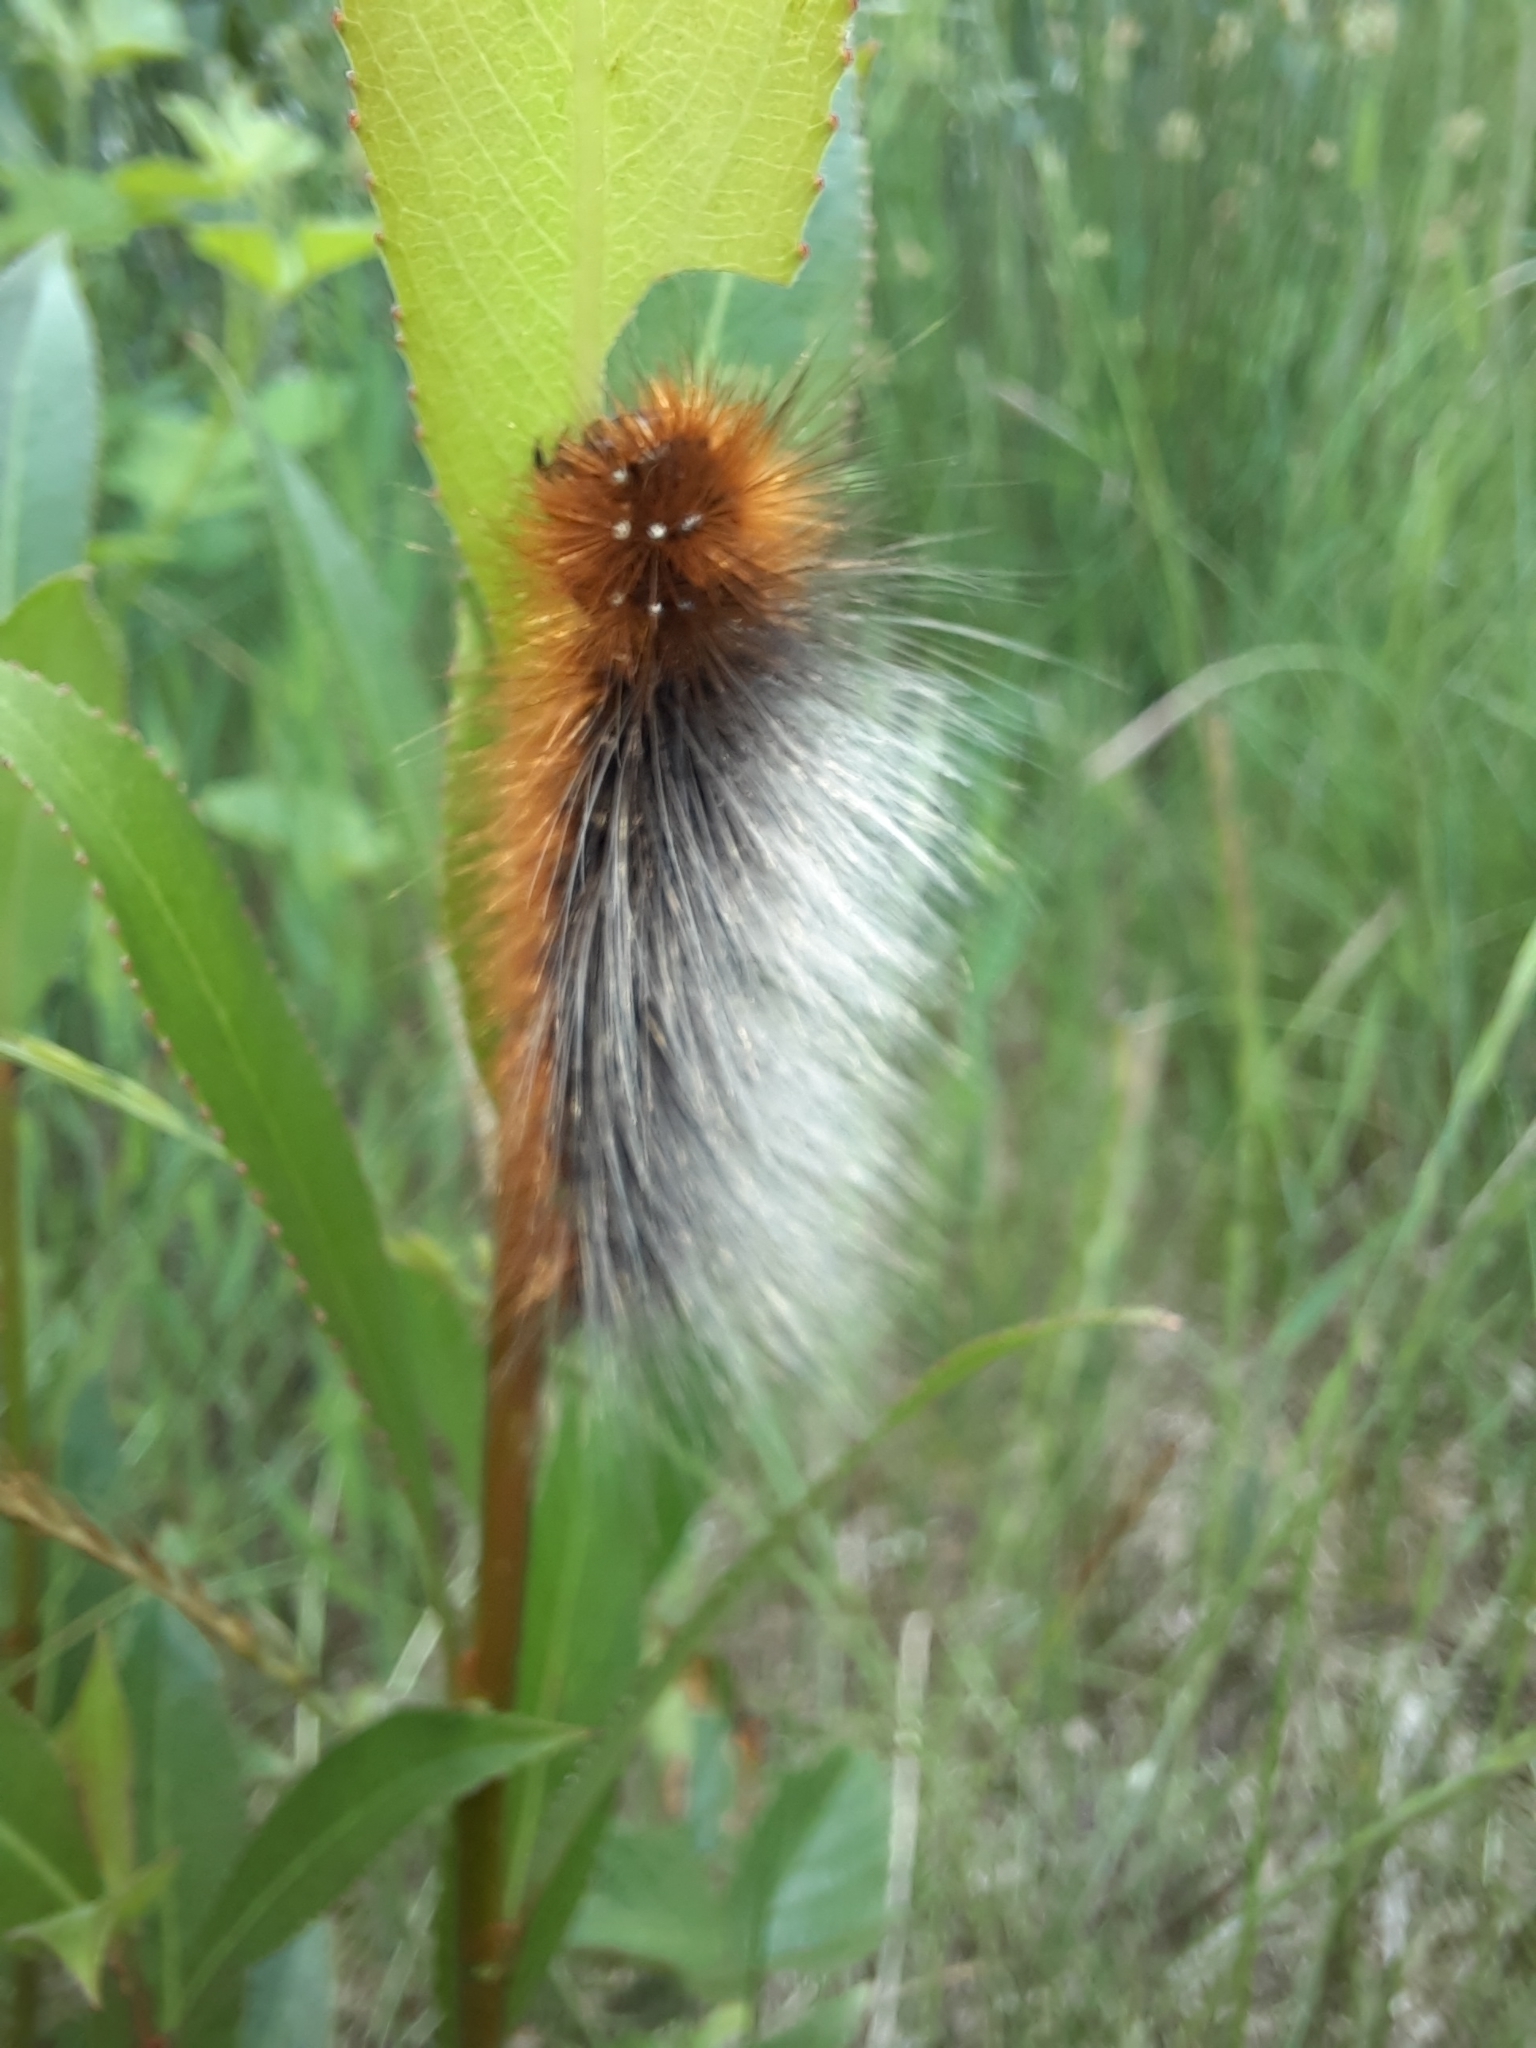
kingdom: Animalia
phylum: Arthropoda
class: Insecta
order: Lepidoptera
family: Erebidae
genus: Arctia
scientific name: Arctia caja
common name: Garden tiger
